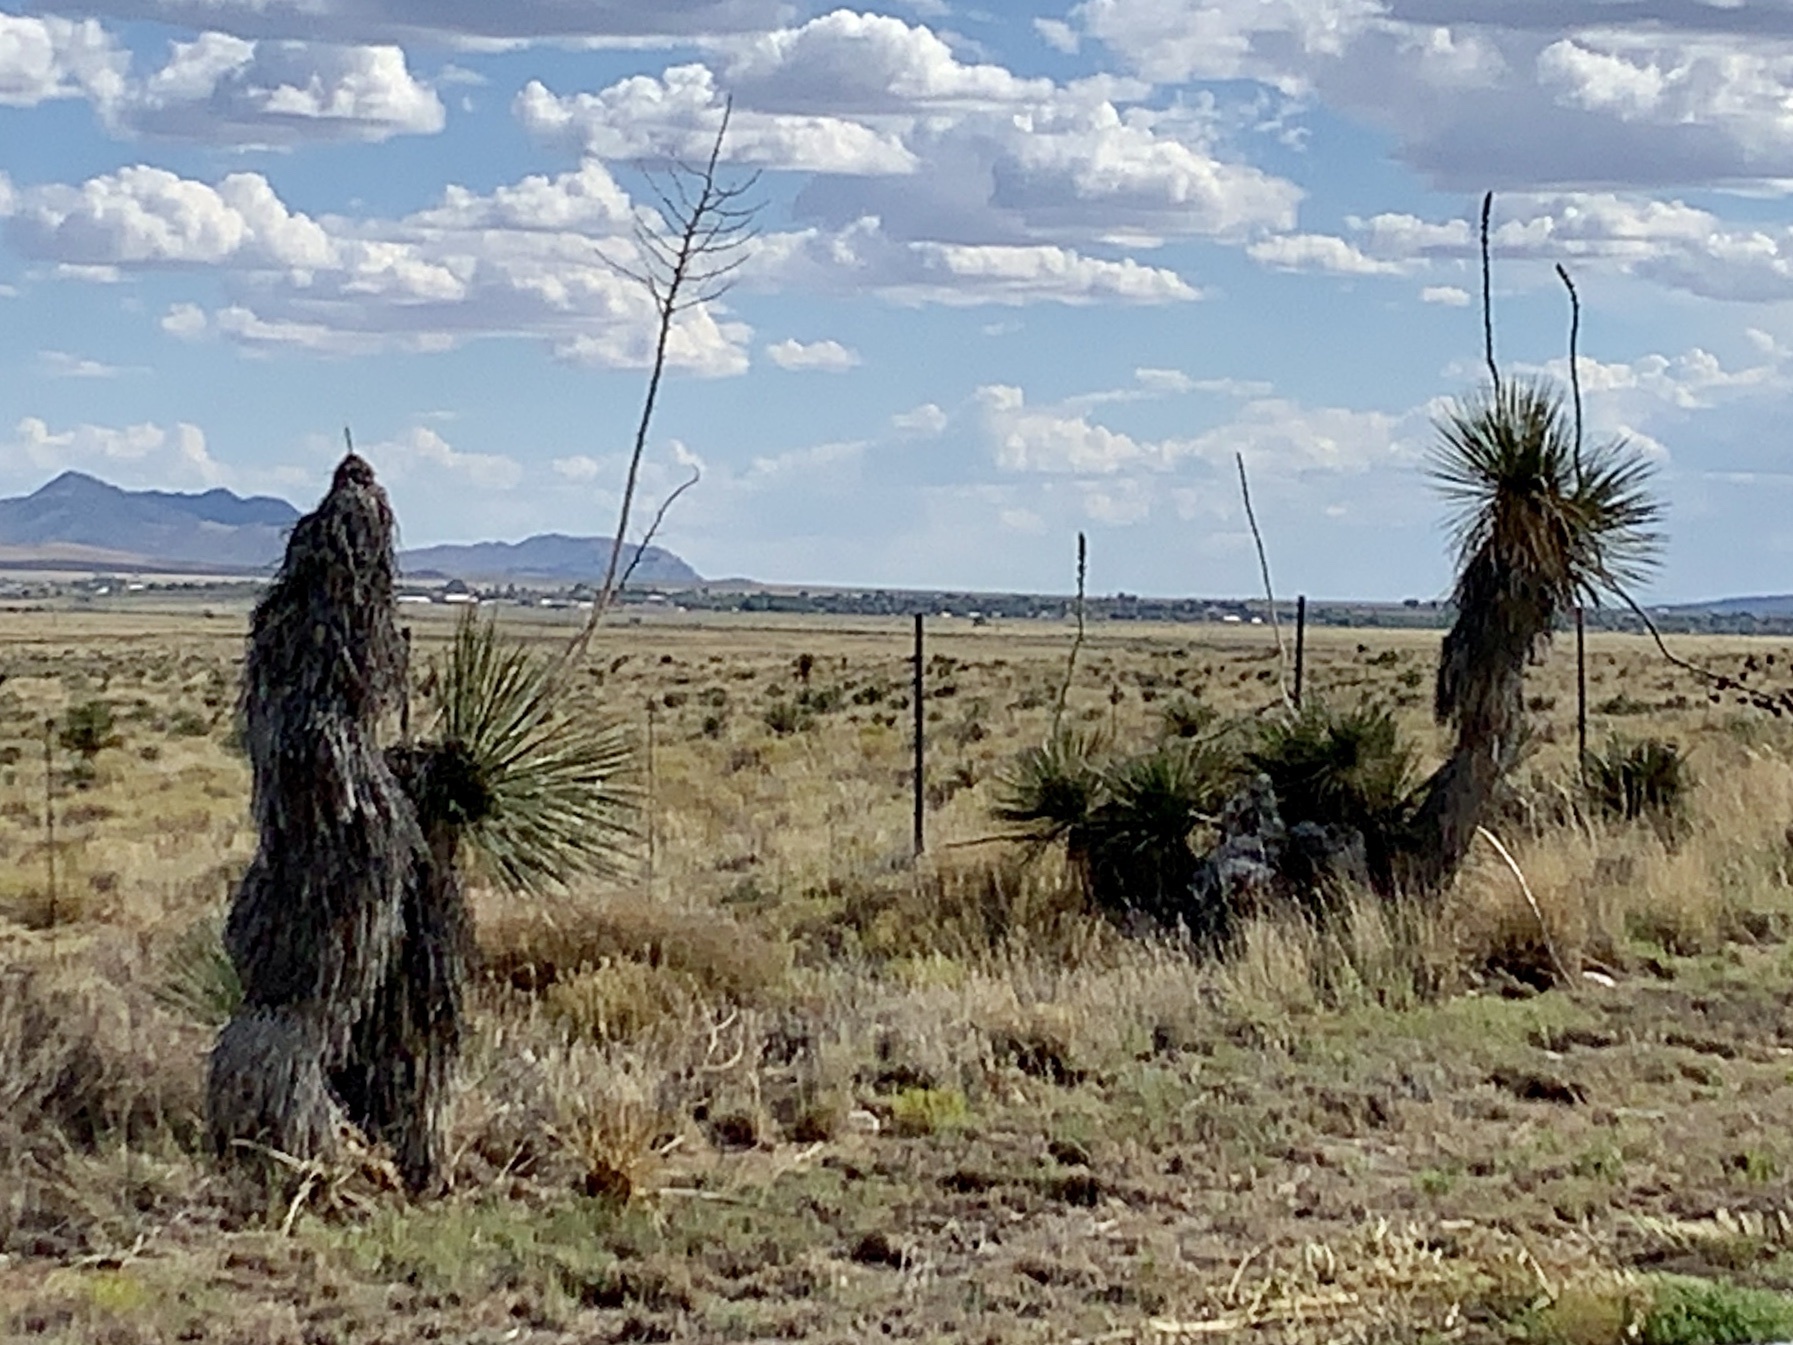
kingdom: Plantae
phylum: Tracheophyta
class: Liliopsida
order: Asparagales
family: Asparagaceae
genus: Yucca
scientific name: Yucca elata
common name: Palmella
